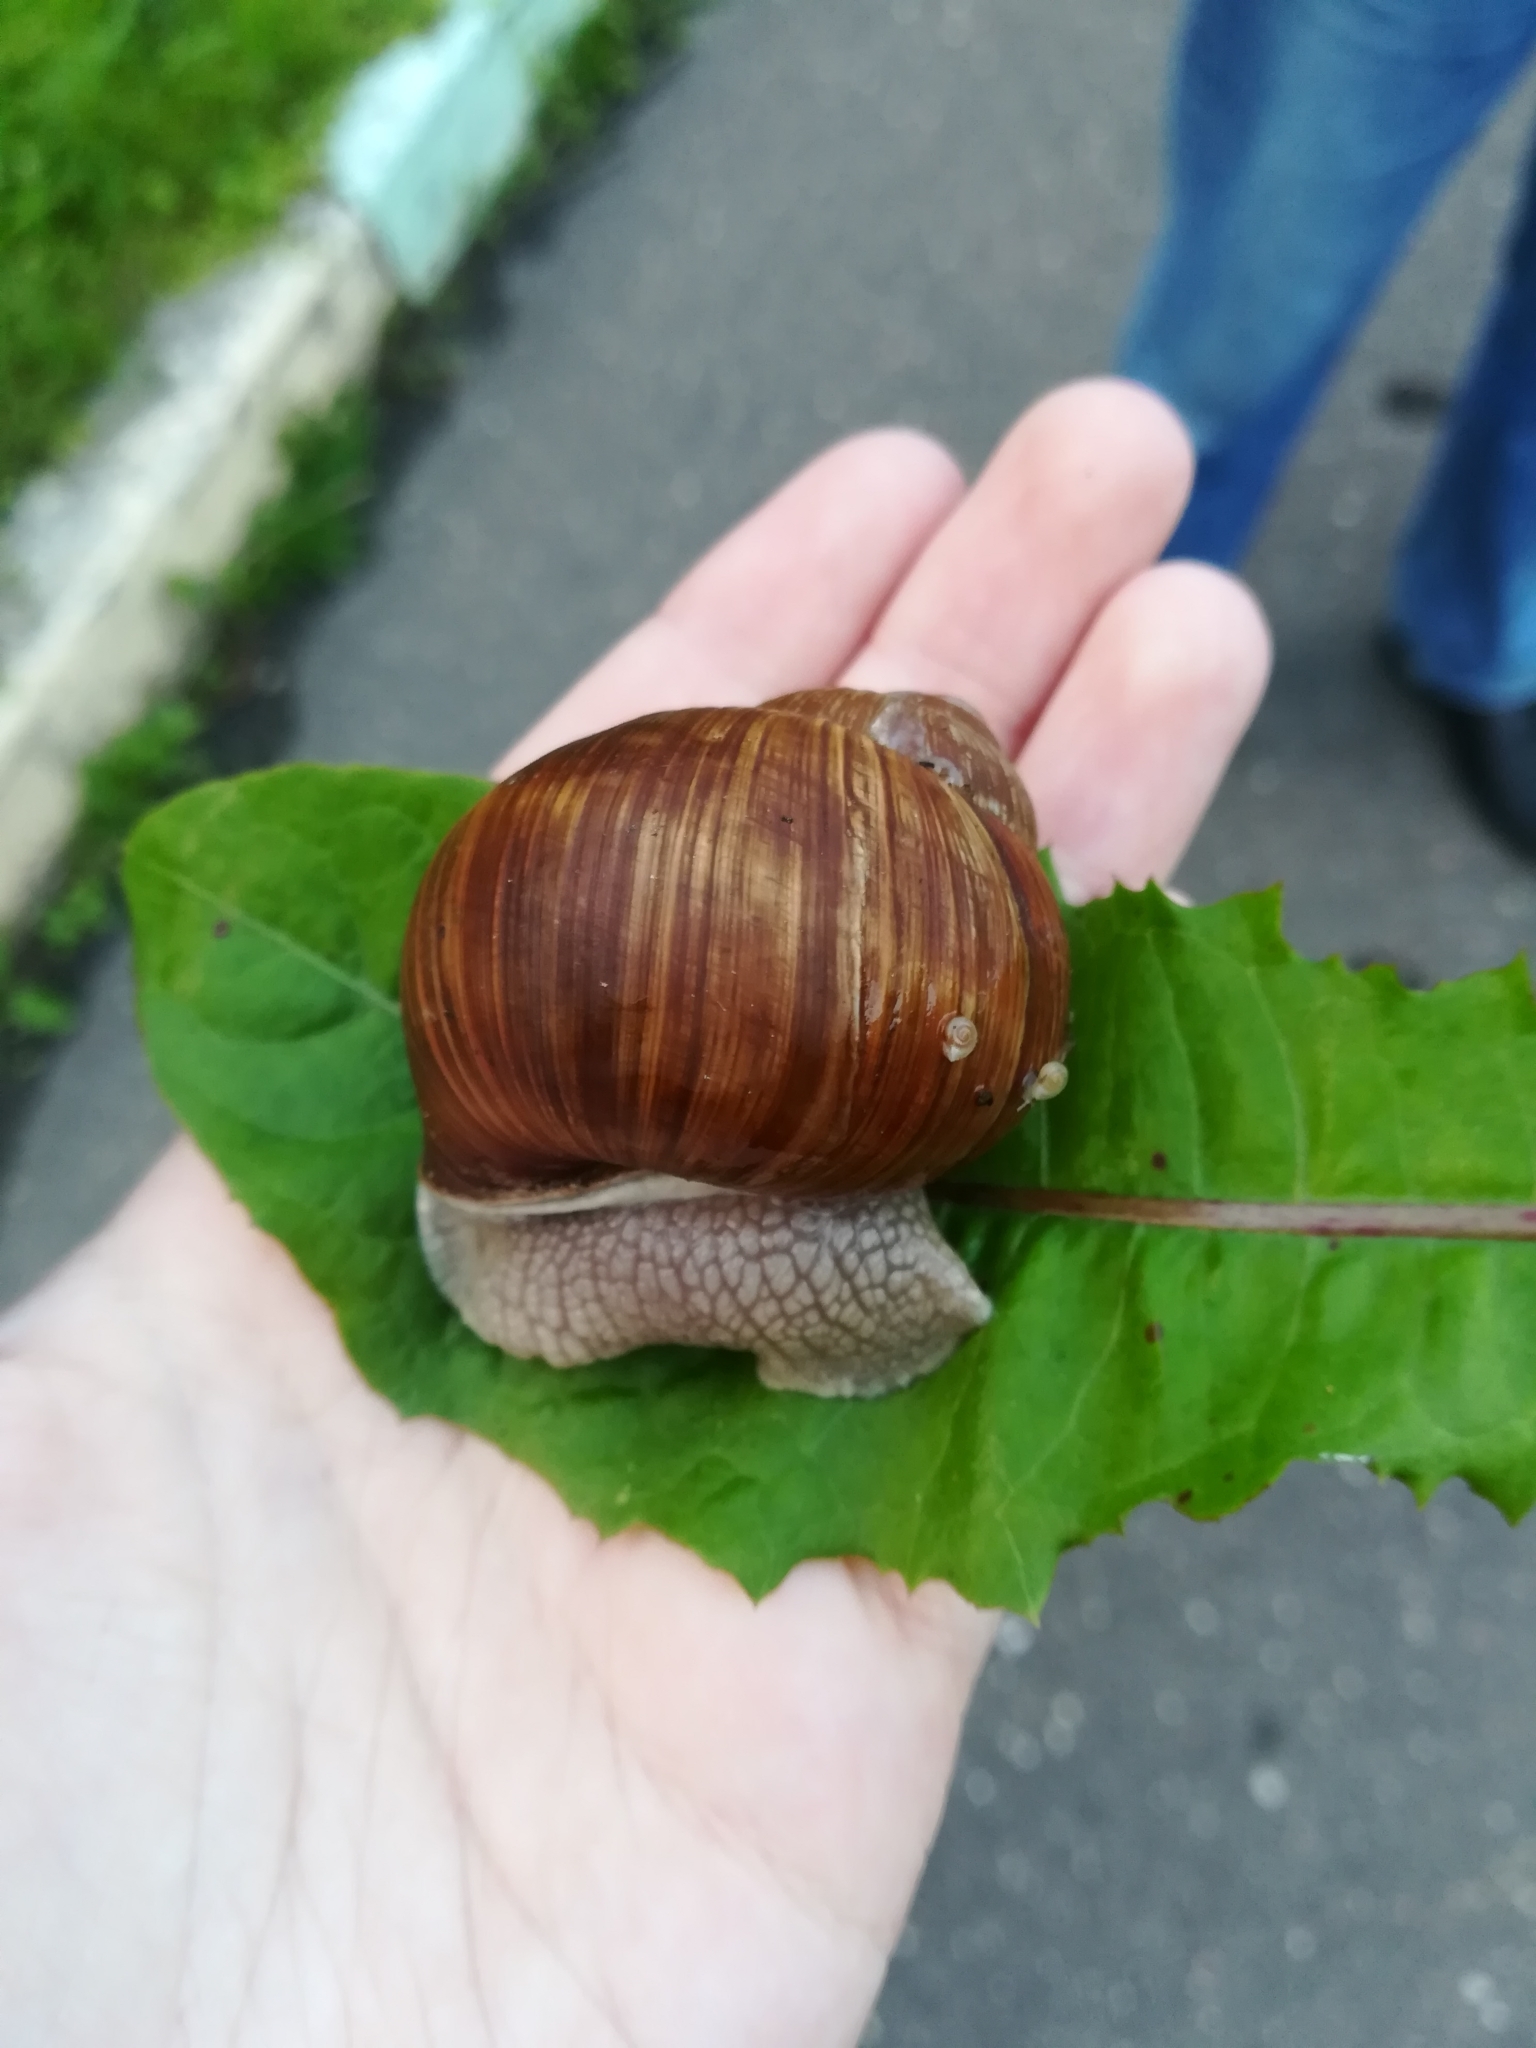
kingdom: Animalia
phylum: Mollusca
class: Gastropoda
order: Stylommatophora
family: Helicidae
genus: Helix
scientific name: Helix pomatia
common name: Roman snail
